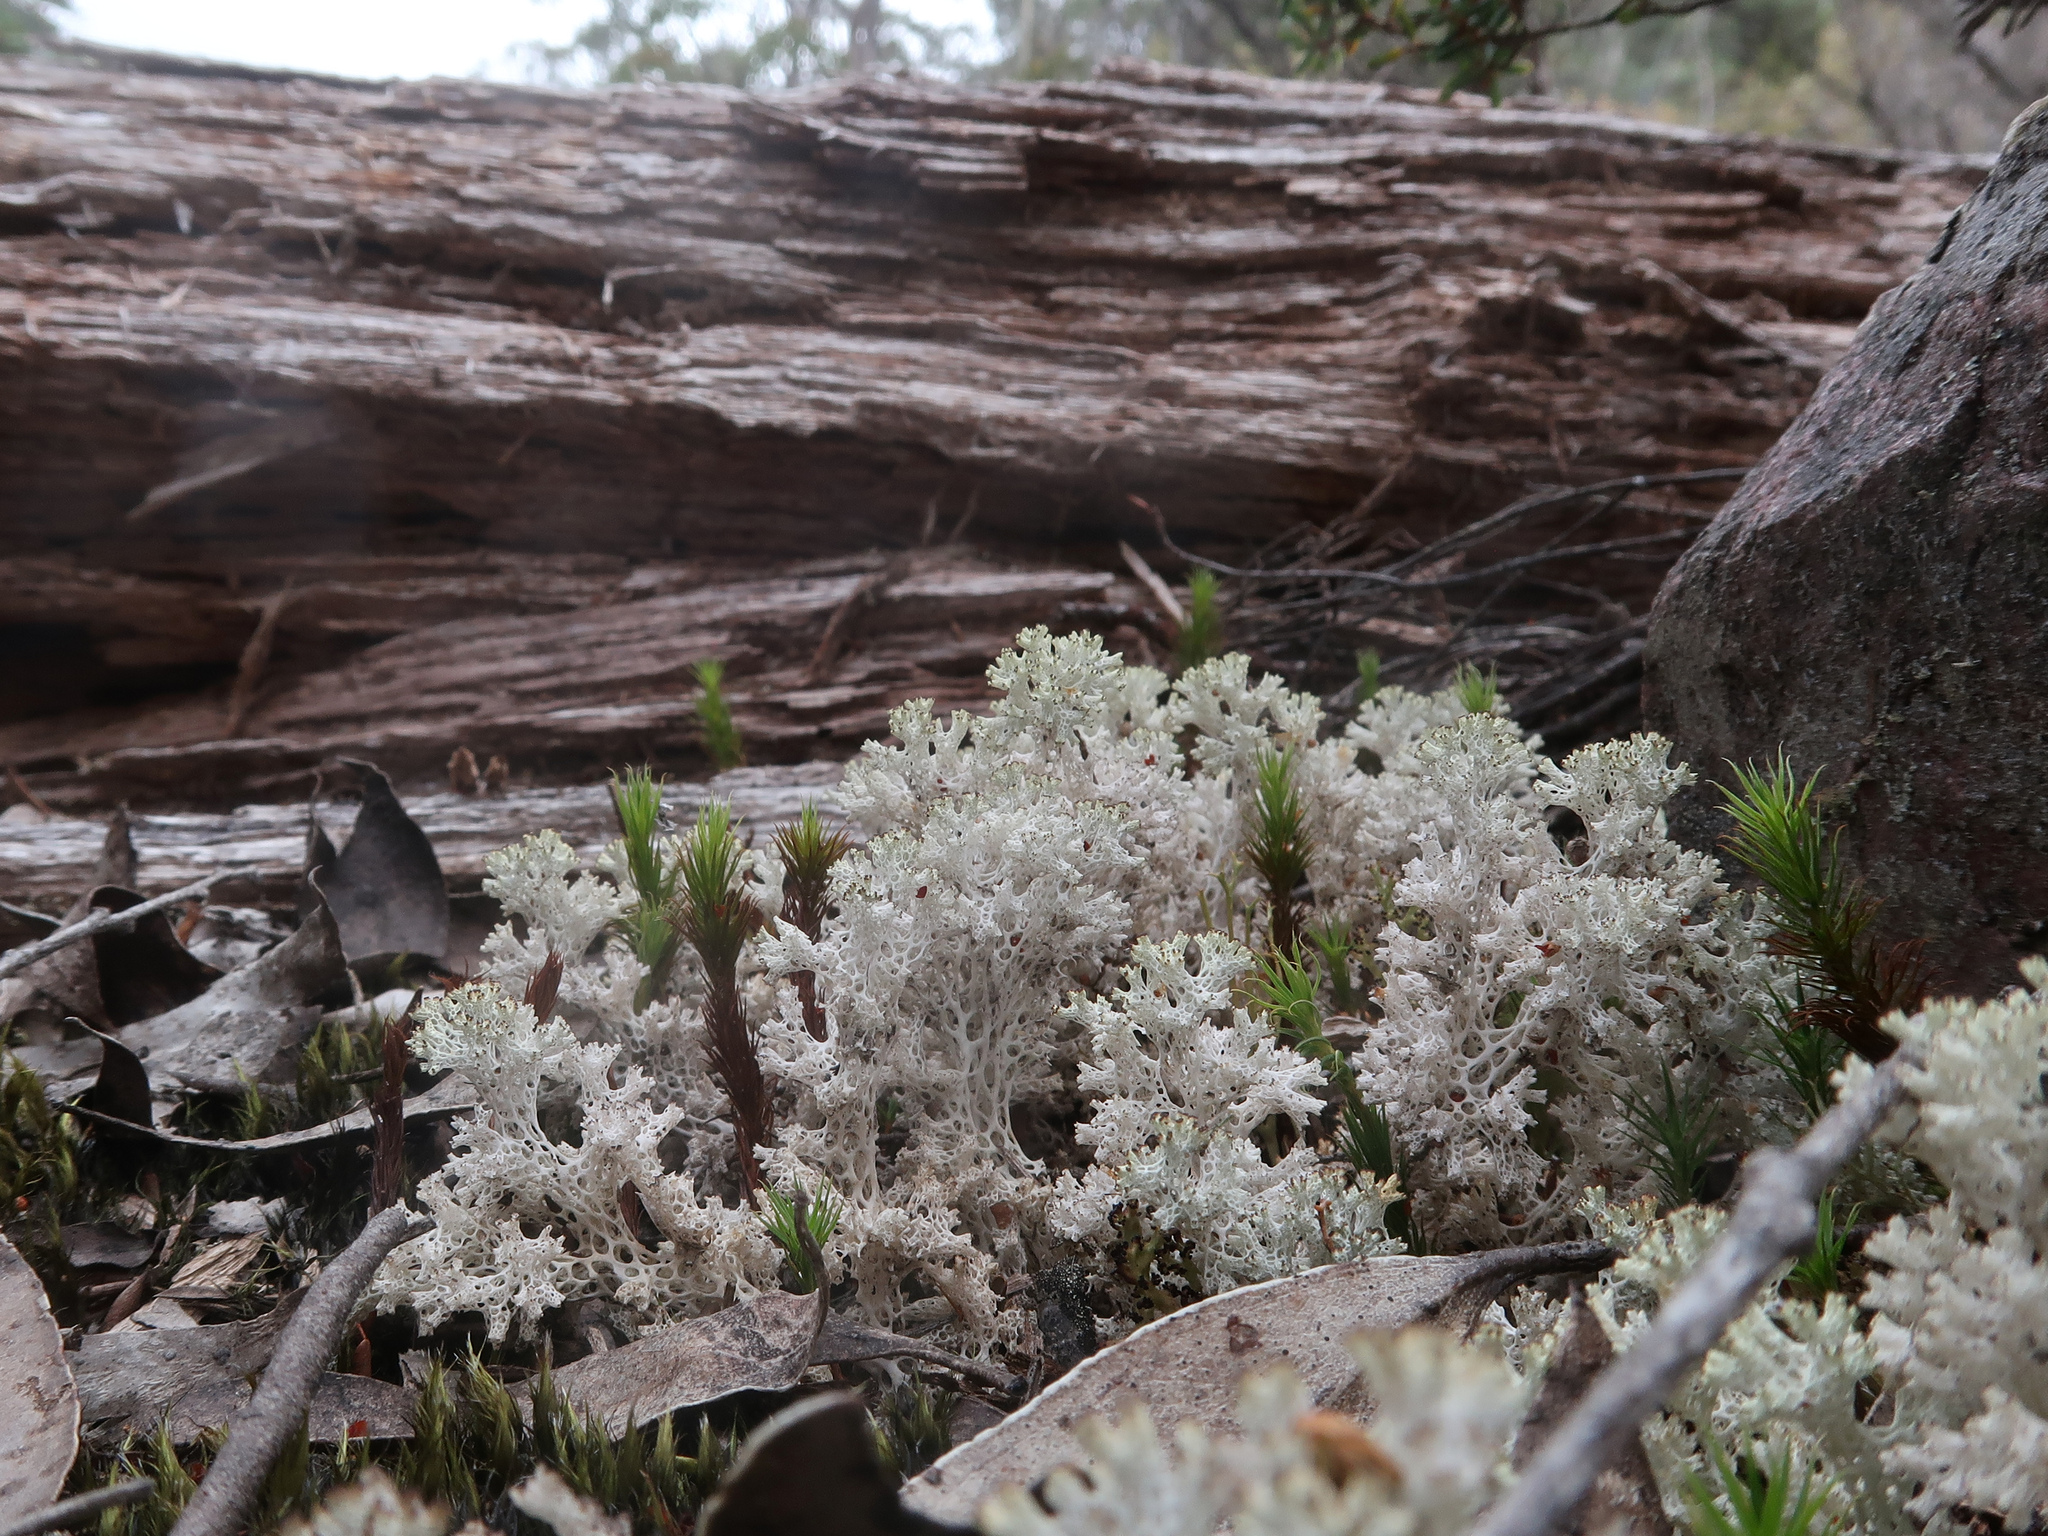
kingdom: Fungi
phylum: Ascomycota
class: Lecanoromycetes
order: Lecanorales
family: Cladoniaceae
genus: Pulchrocladia
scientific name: Pulchrocladia retipora
